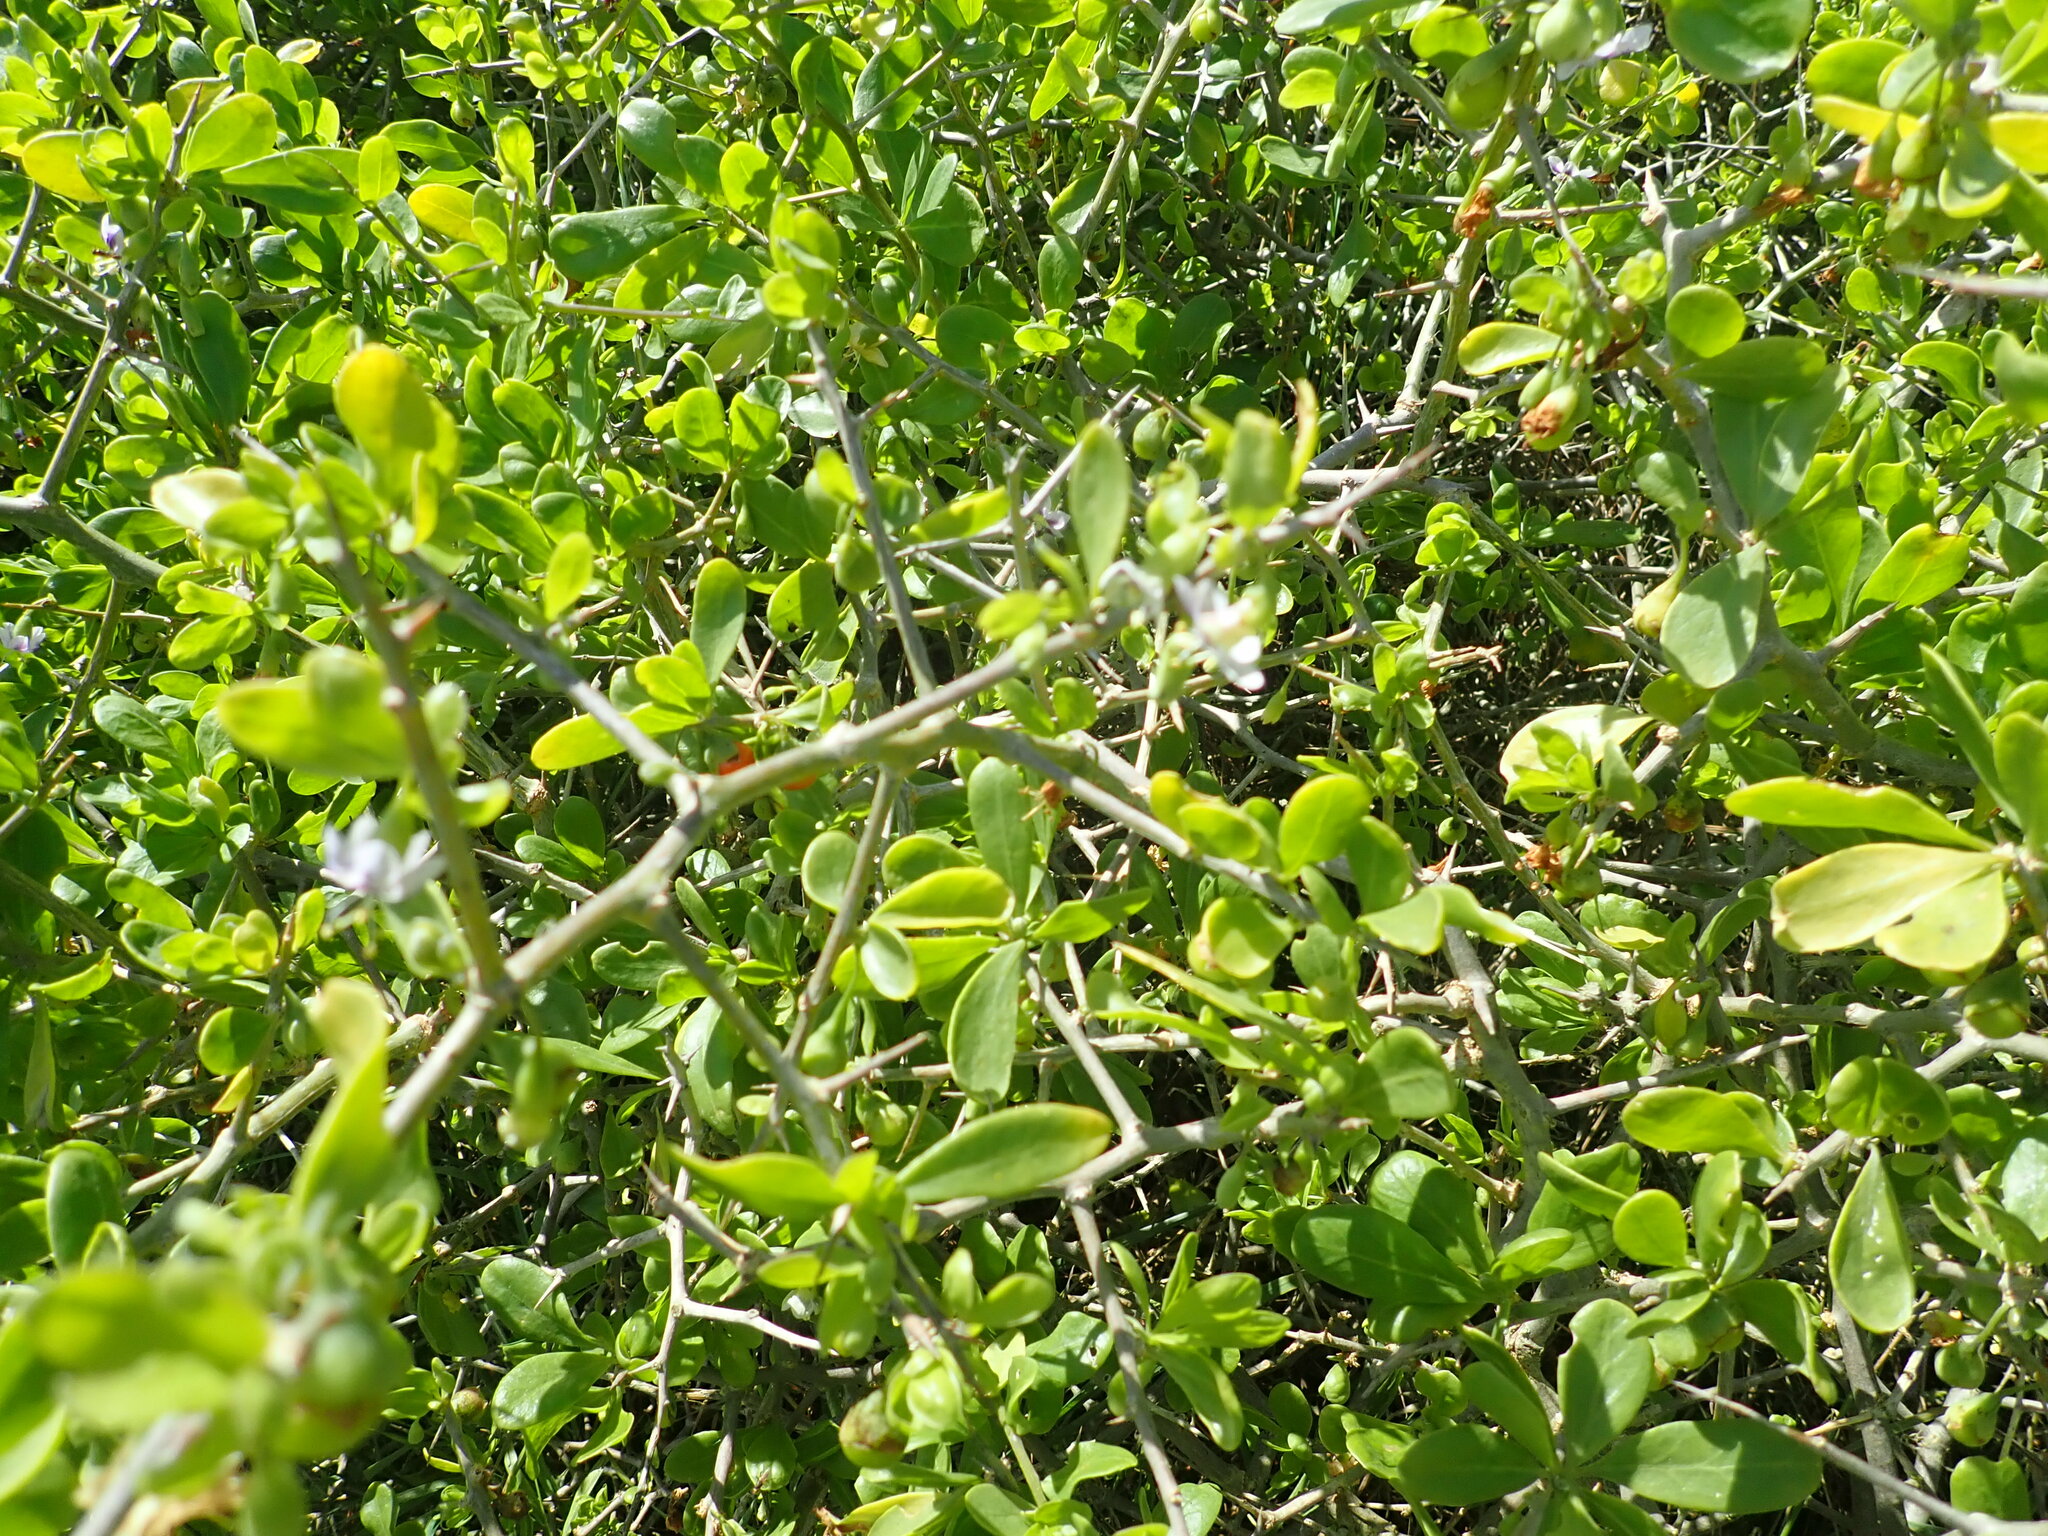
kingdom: Plantae
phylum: Tracheophyta
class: Magnoliopsida
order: Solanales
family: Solanaceae
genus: Lycium
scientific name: Lycium ferocissimum
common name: African boxthorn
